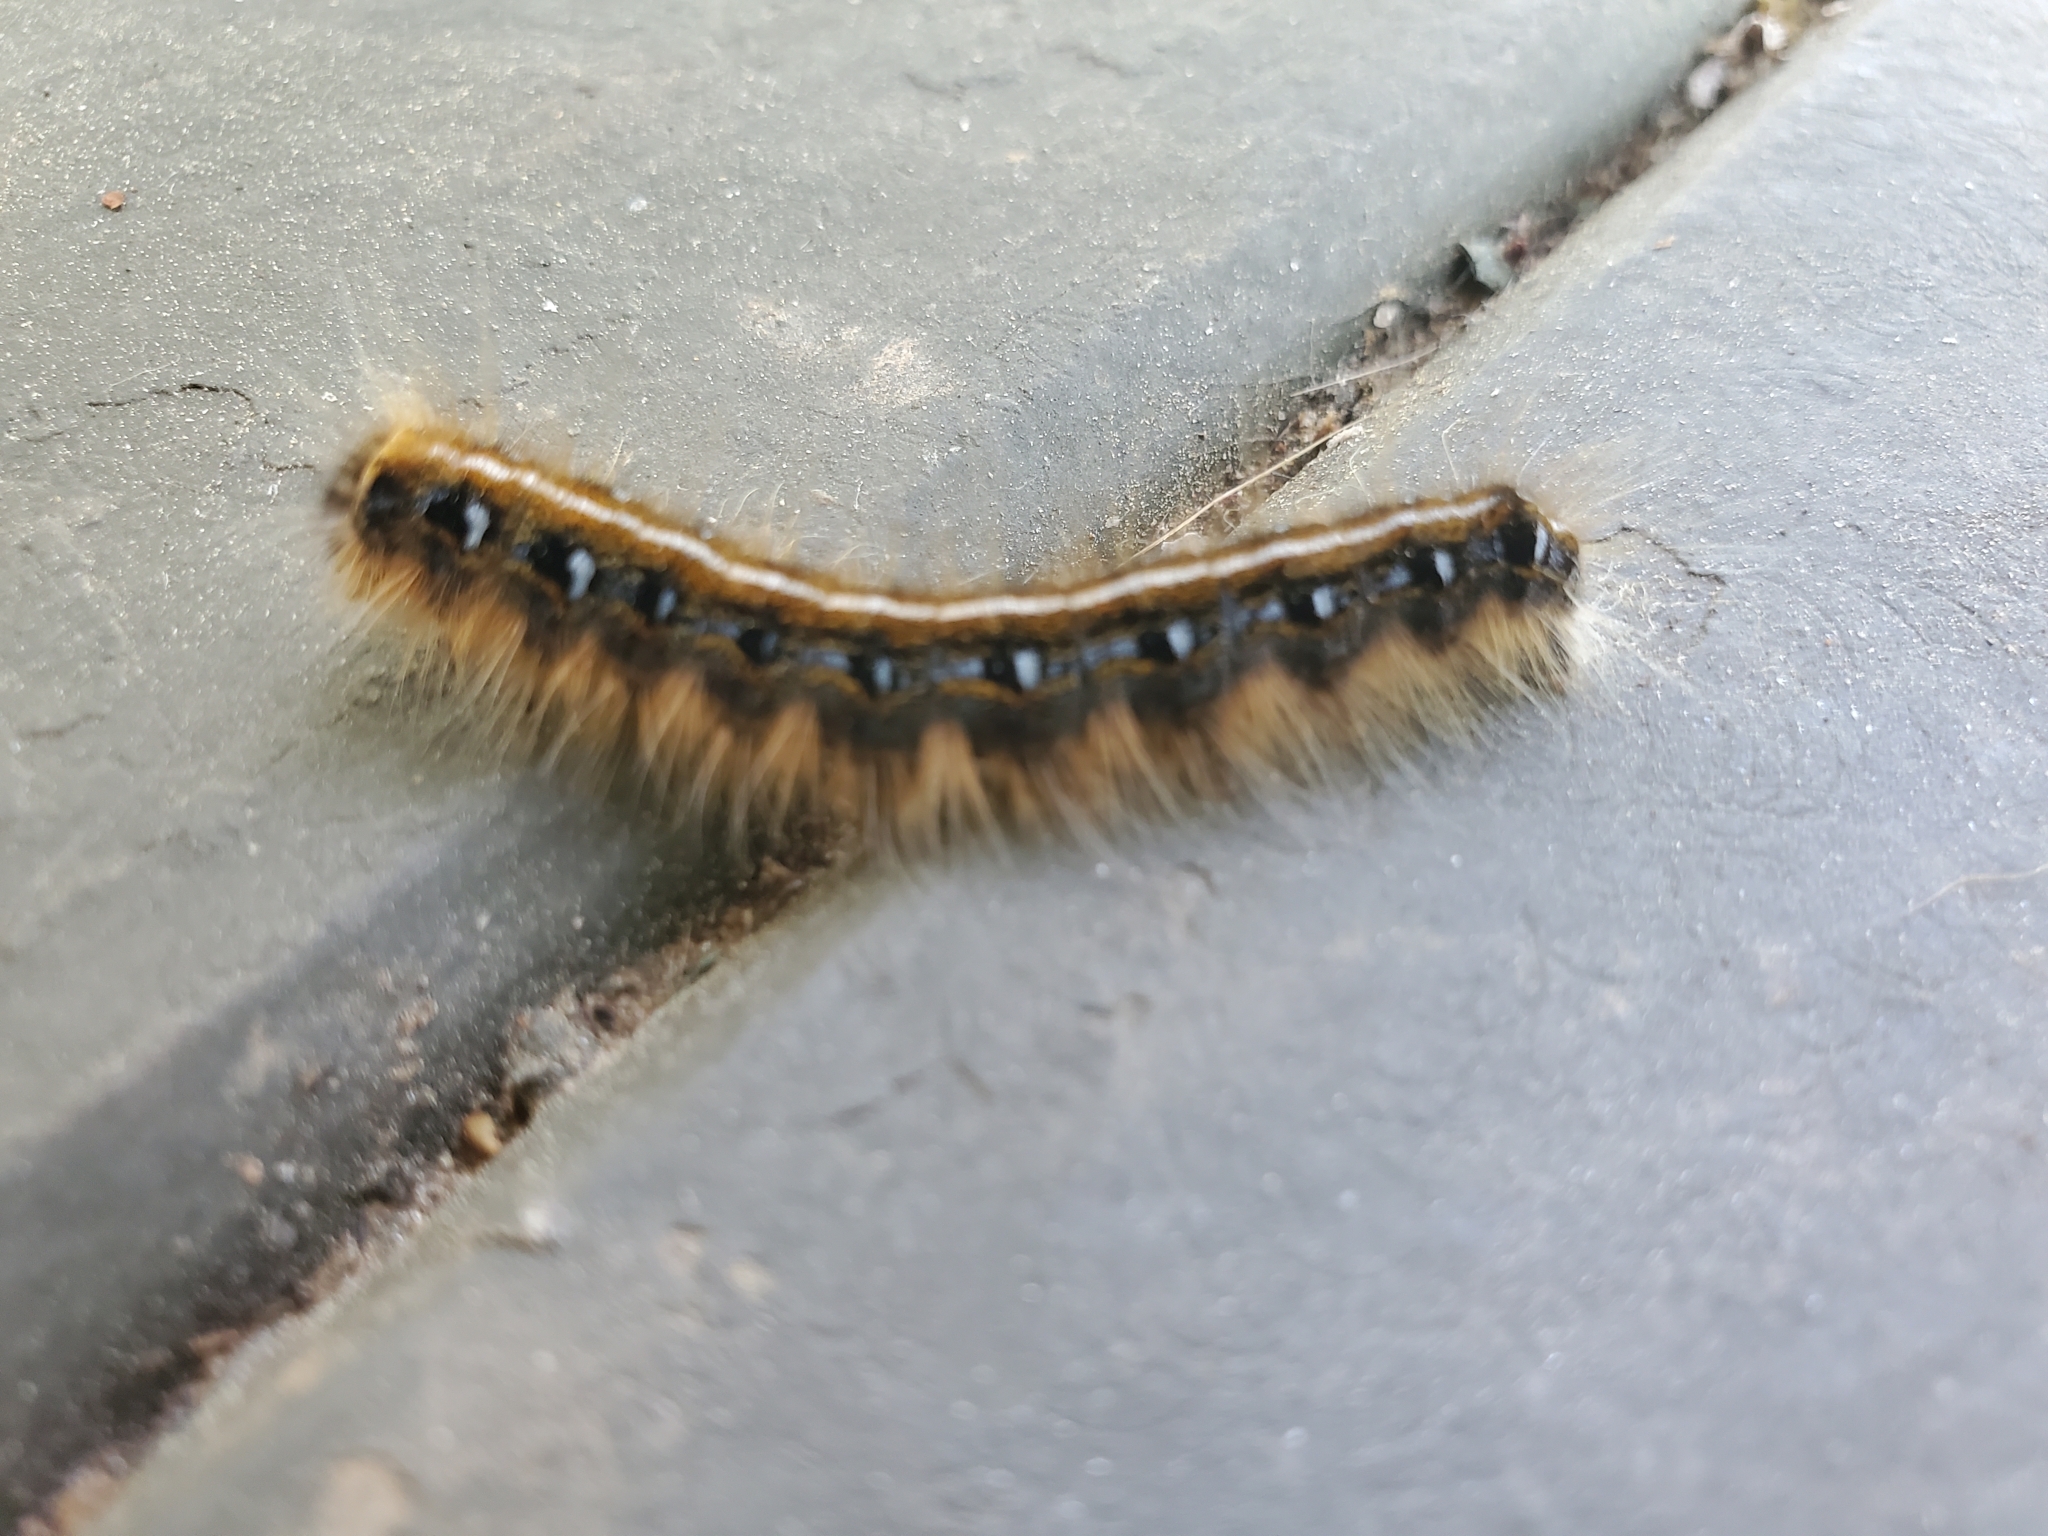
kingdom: Animalia
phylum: Arthropoda
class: Insecta
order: Lepidoptera
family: Lasiocampidae
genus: Malacosoma
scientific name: Malacosoma americana
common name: Eastern tent caterpillar moth
